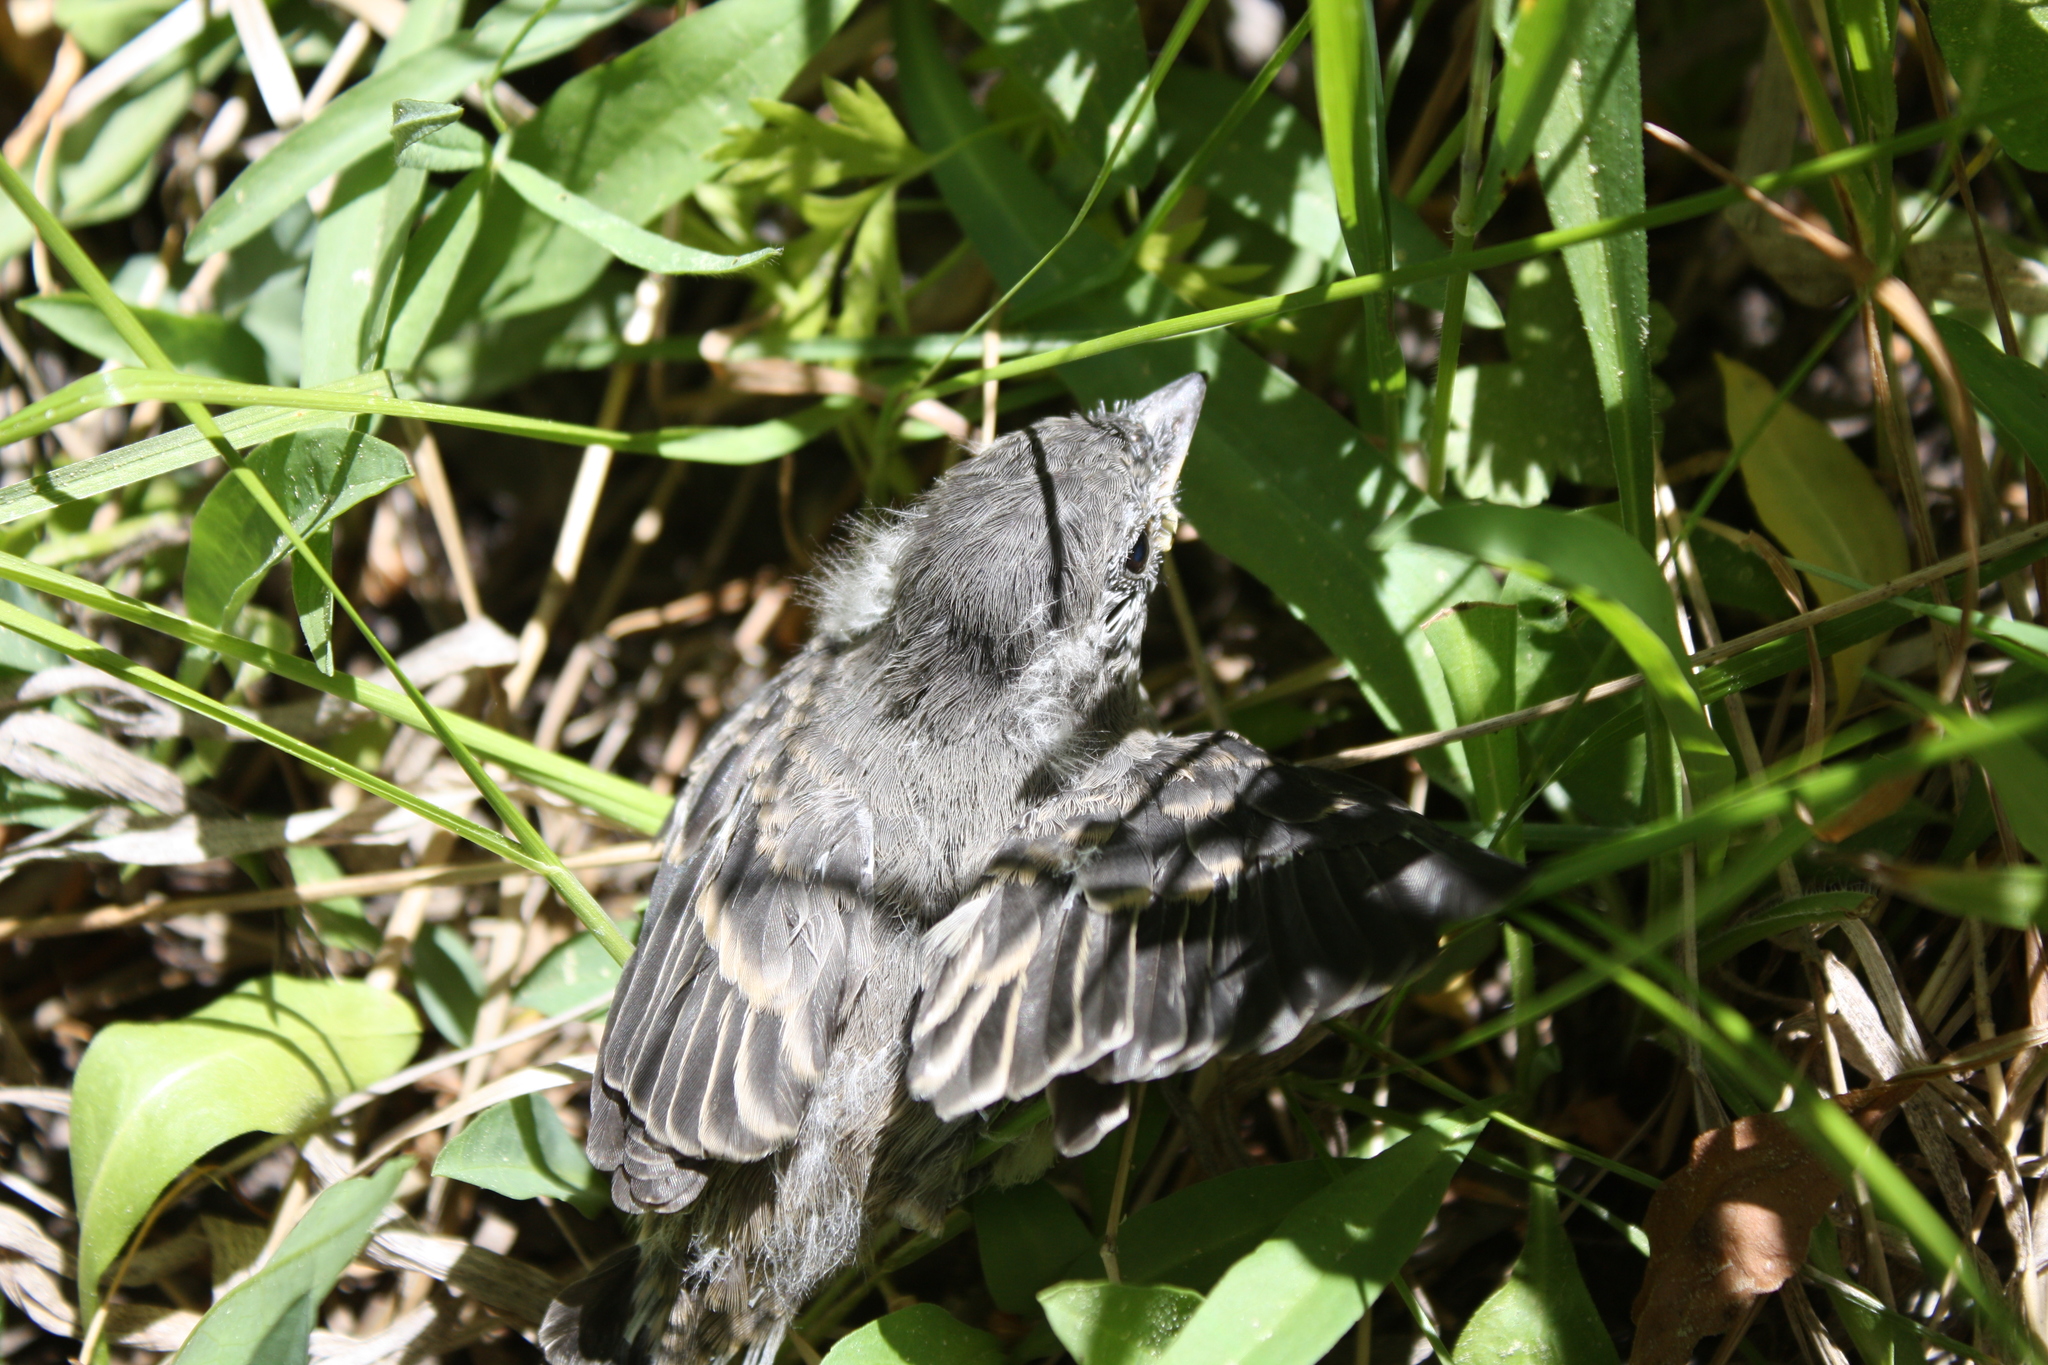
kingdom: Animalia
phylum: Chordata
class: Aves
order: Passeriformes
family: Tyrannidae
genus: Sayornis
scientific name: Sayornis nigricans
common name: Black phoebe
